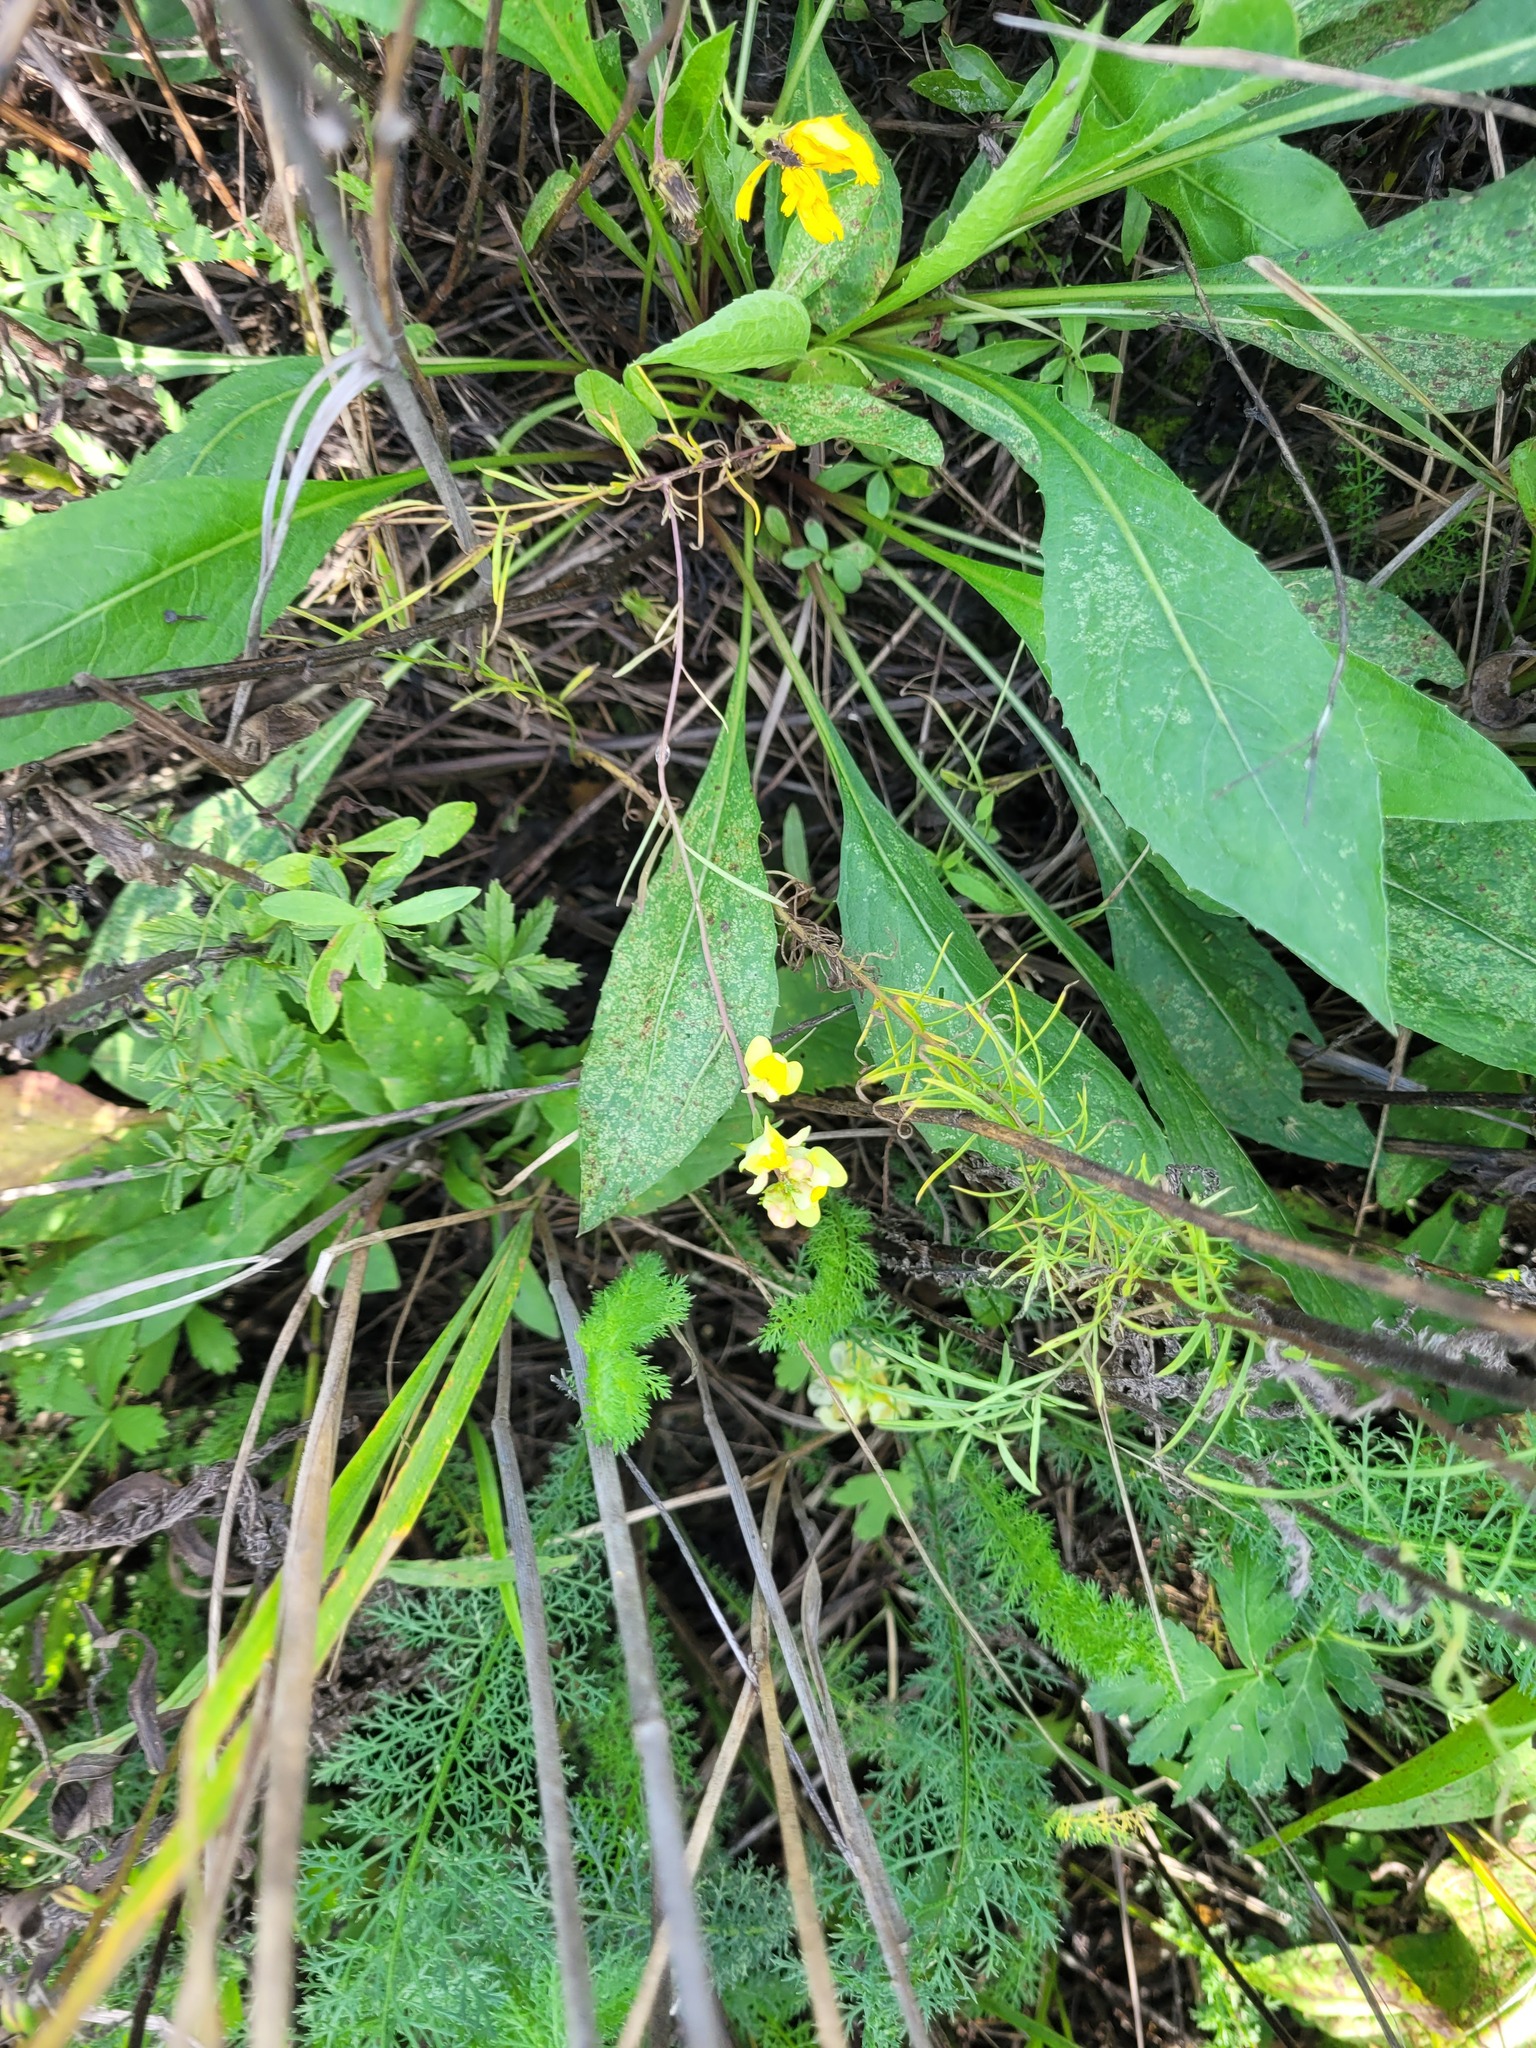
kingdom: Plantae
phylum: Tracheophyta
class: Magnoliopsida
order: Lamiales
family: Plantaginaceae
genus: Linaria
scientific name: Linaria vulgaris
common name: Butter and eggs
